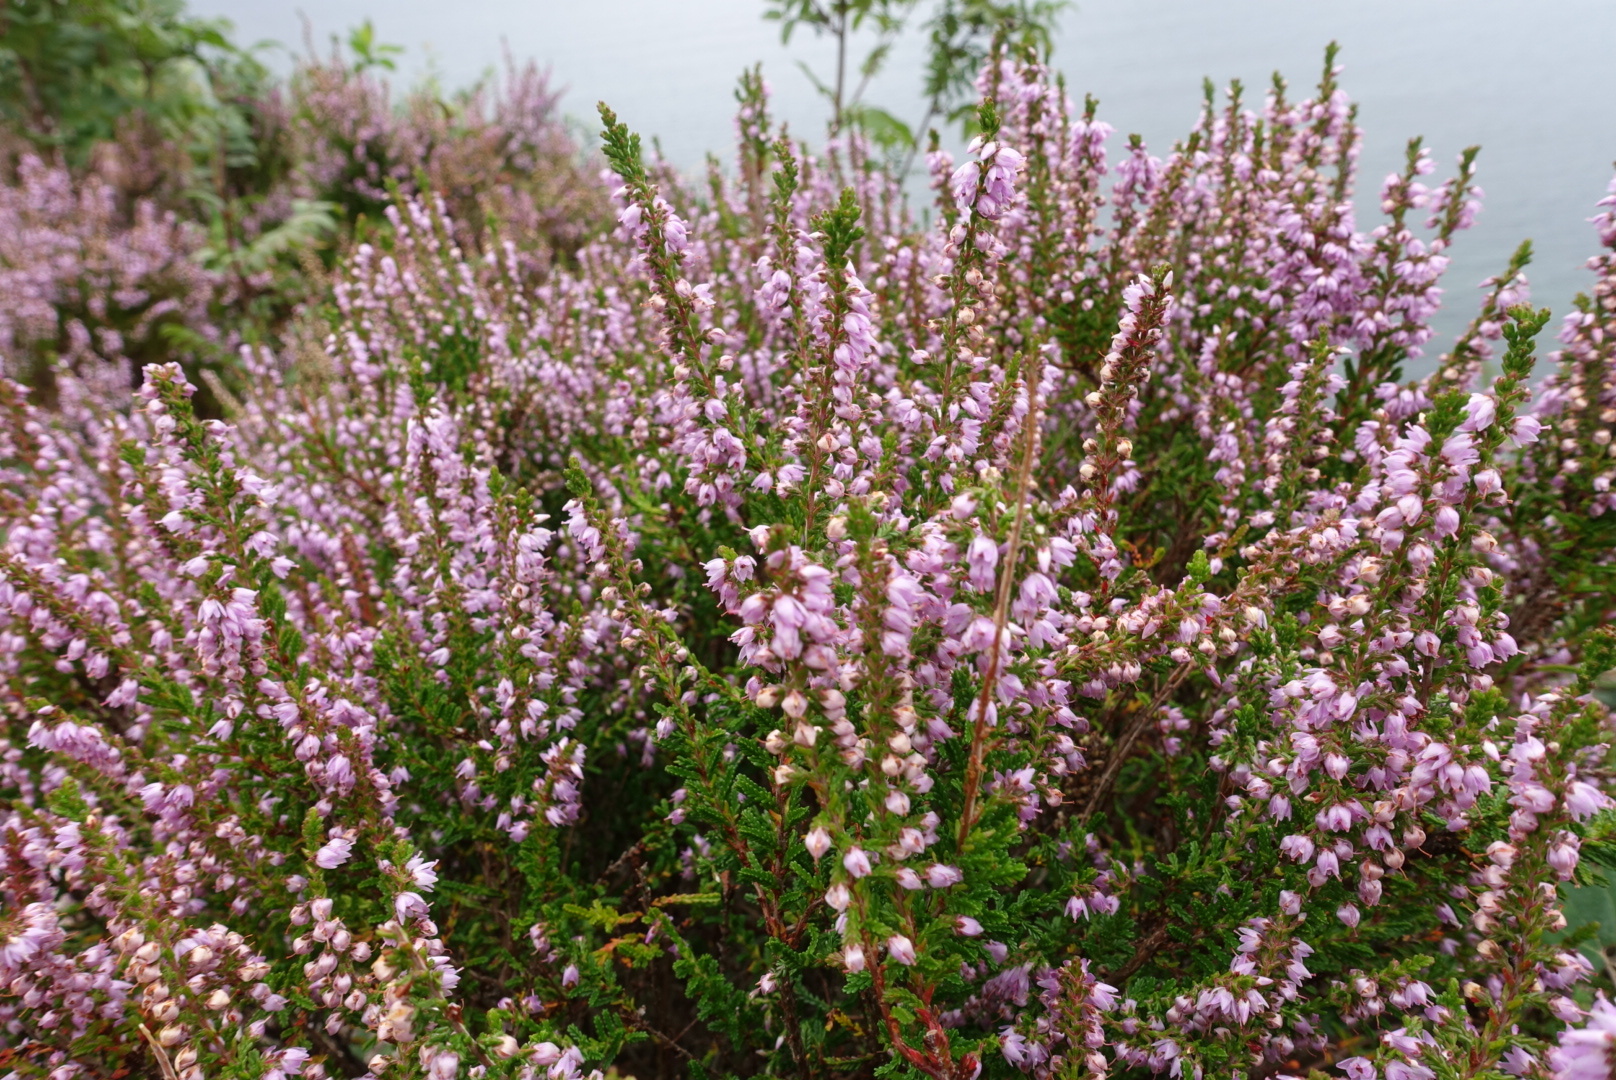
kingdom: Plantae
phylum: Tracheophyta
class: Magnoliopsida
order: Ericales
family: Ericaceae
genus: Calluna
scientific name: Calluna vulgaris
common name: Heather
